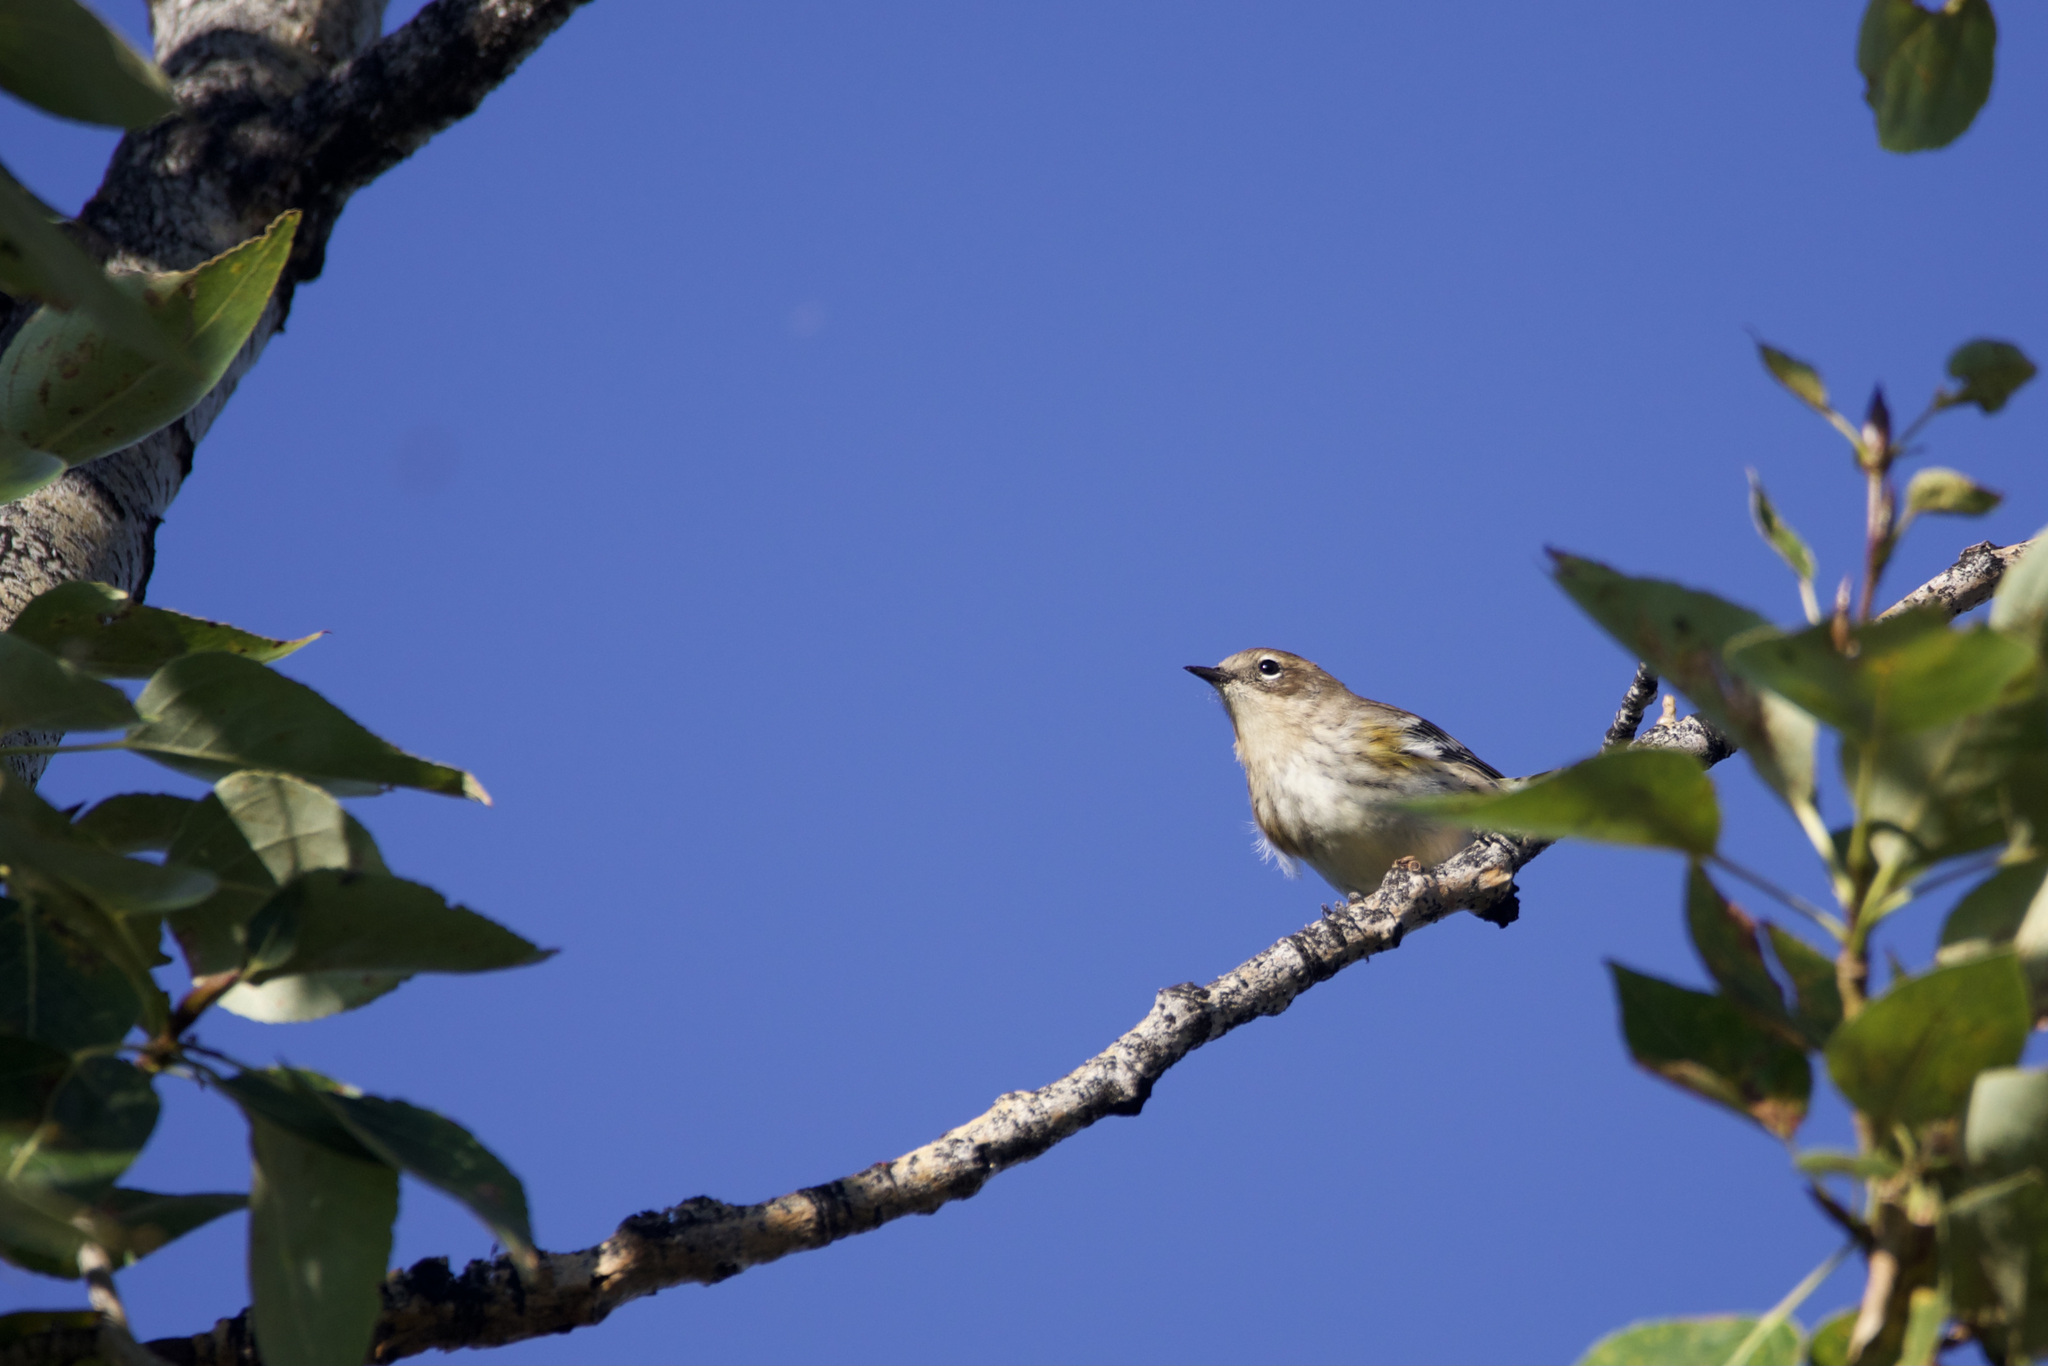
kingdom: Animalia
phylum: Chordata
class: Aves
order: Passeriformes
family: Parulidae
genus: Setophaga
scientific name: Setophaga coronata
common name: Myrtle warbler
